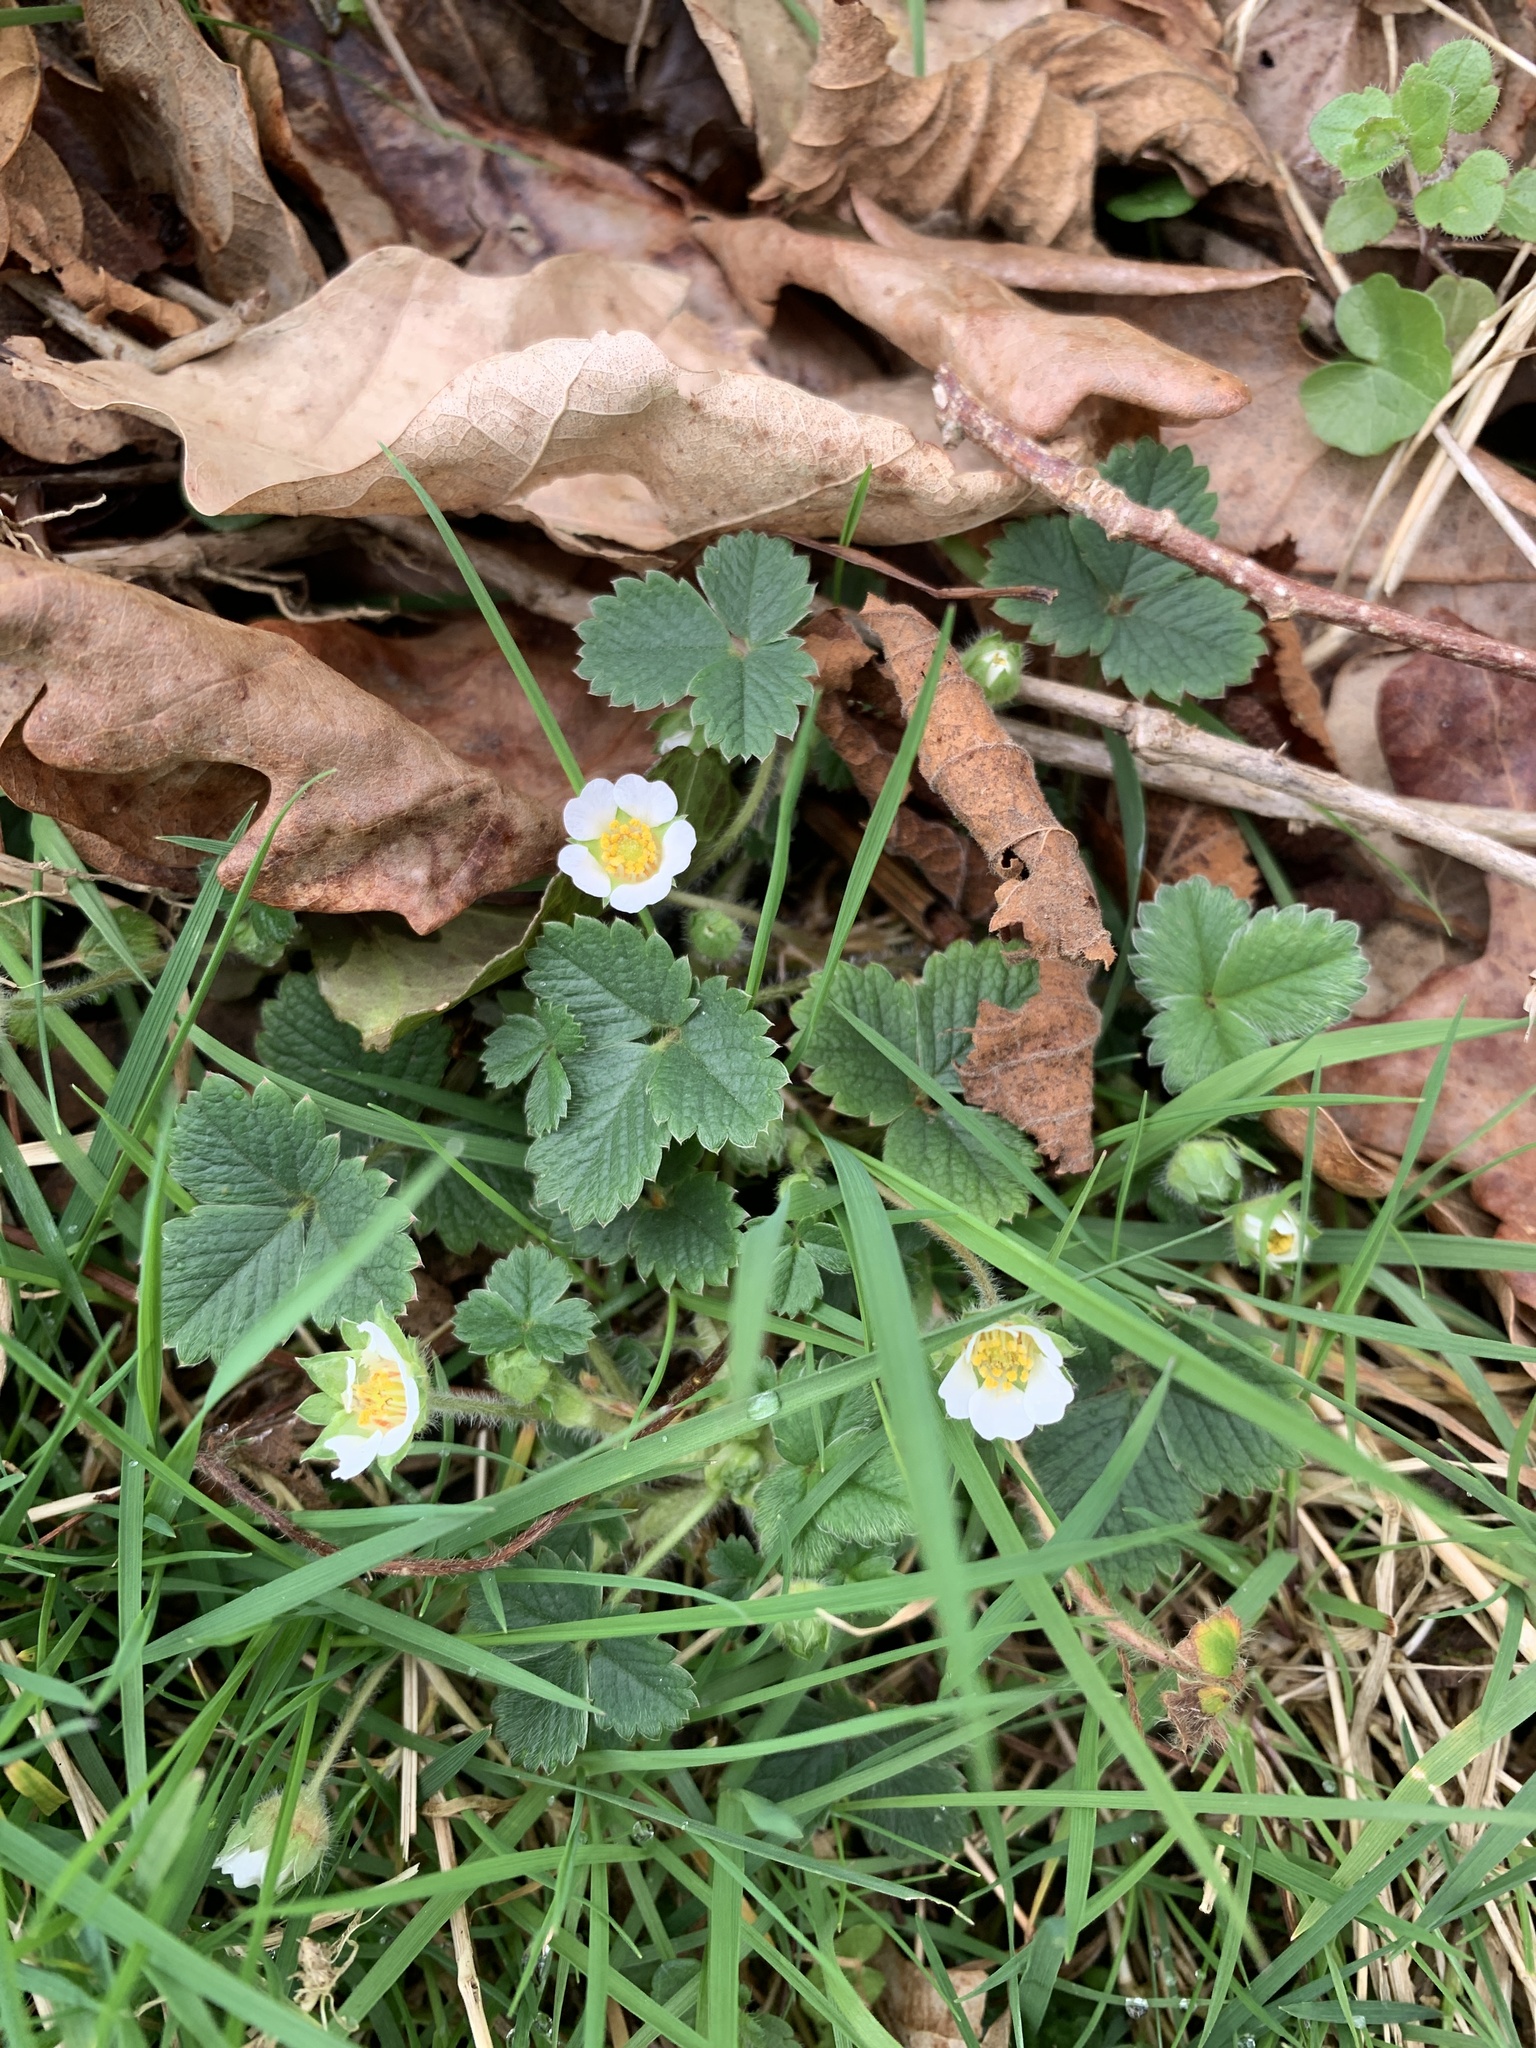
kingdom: Plantae
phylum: Tracheophyta
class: Magnoliopsida
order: Rosales
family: Rosaceae
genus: Potentilla
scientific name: Potentilla sterilis
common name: Barren strawberry
